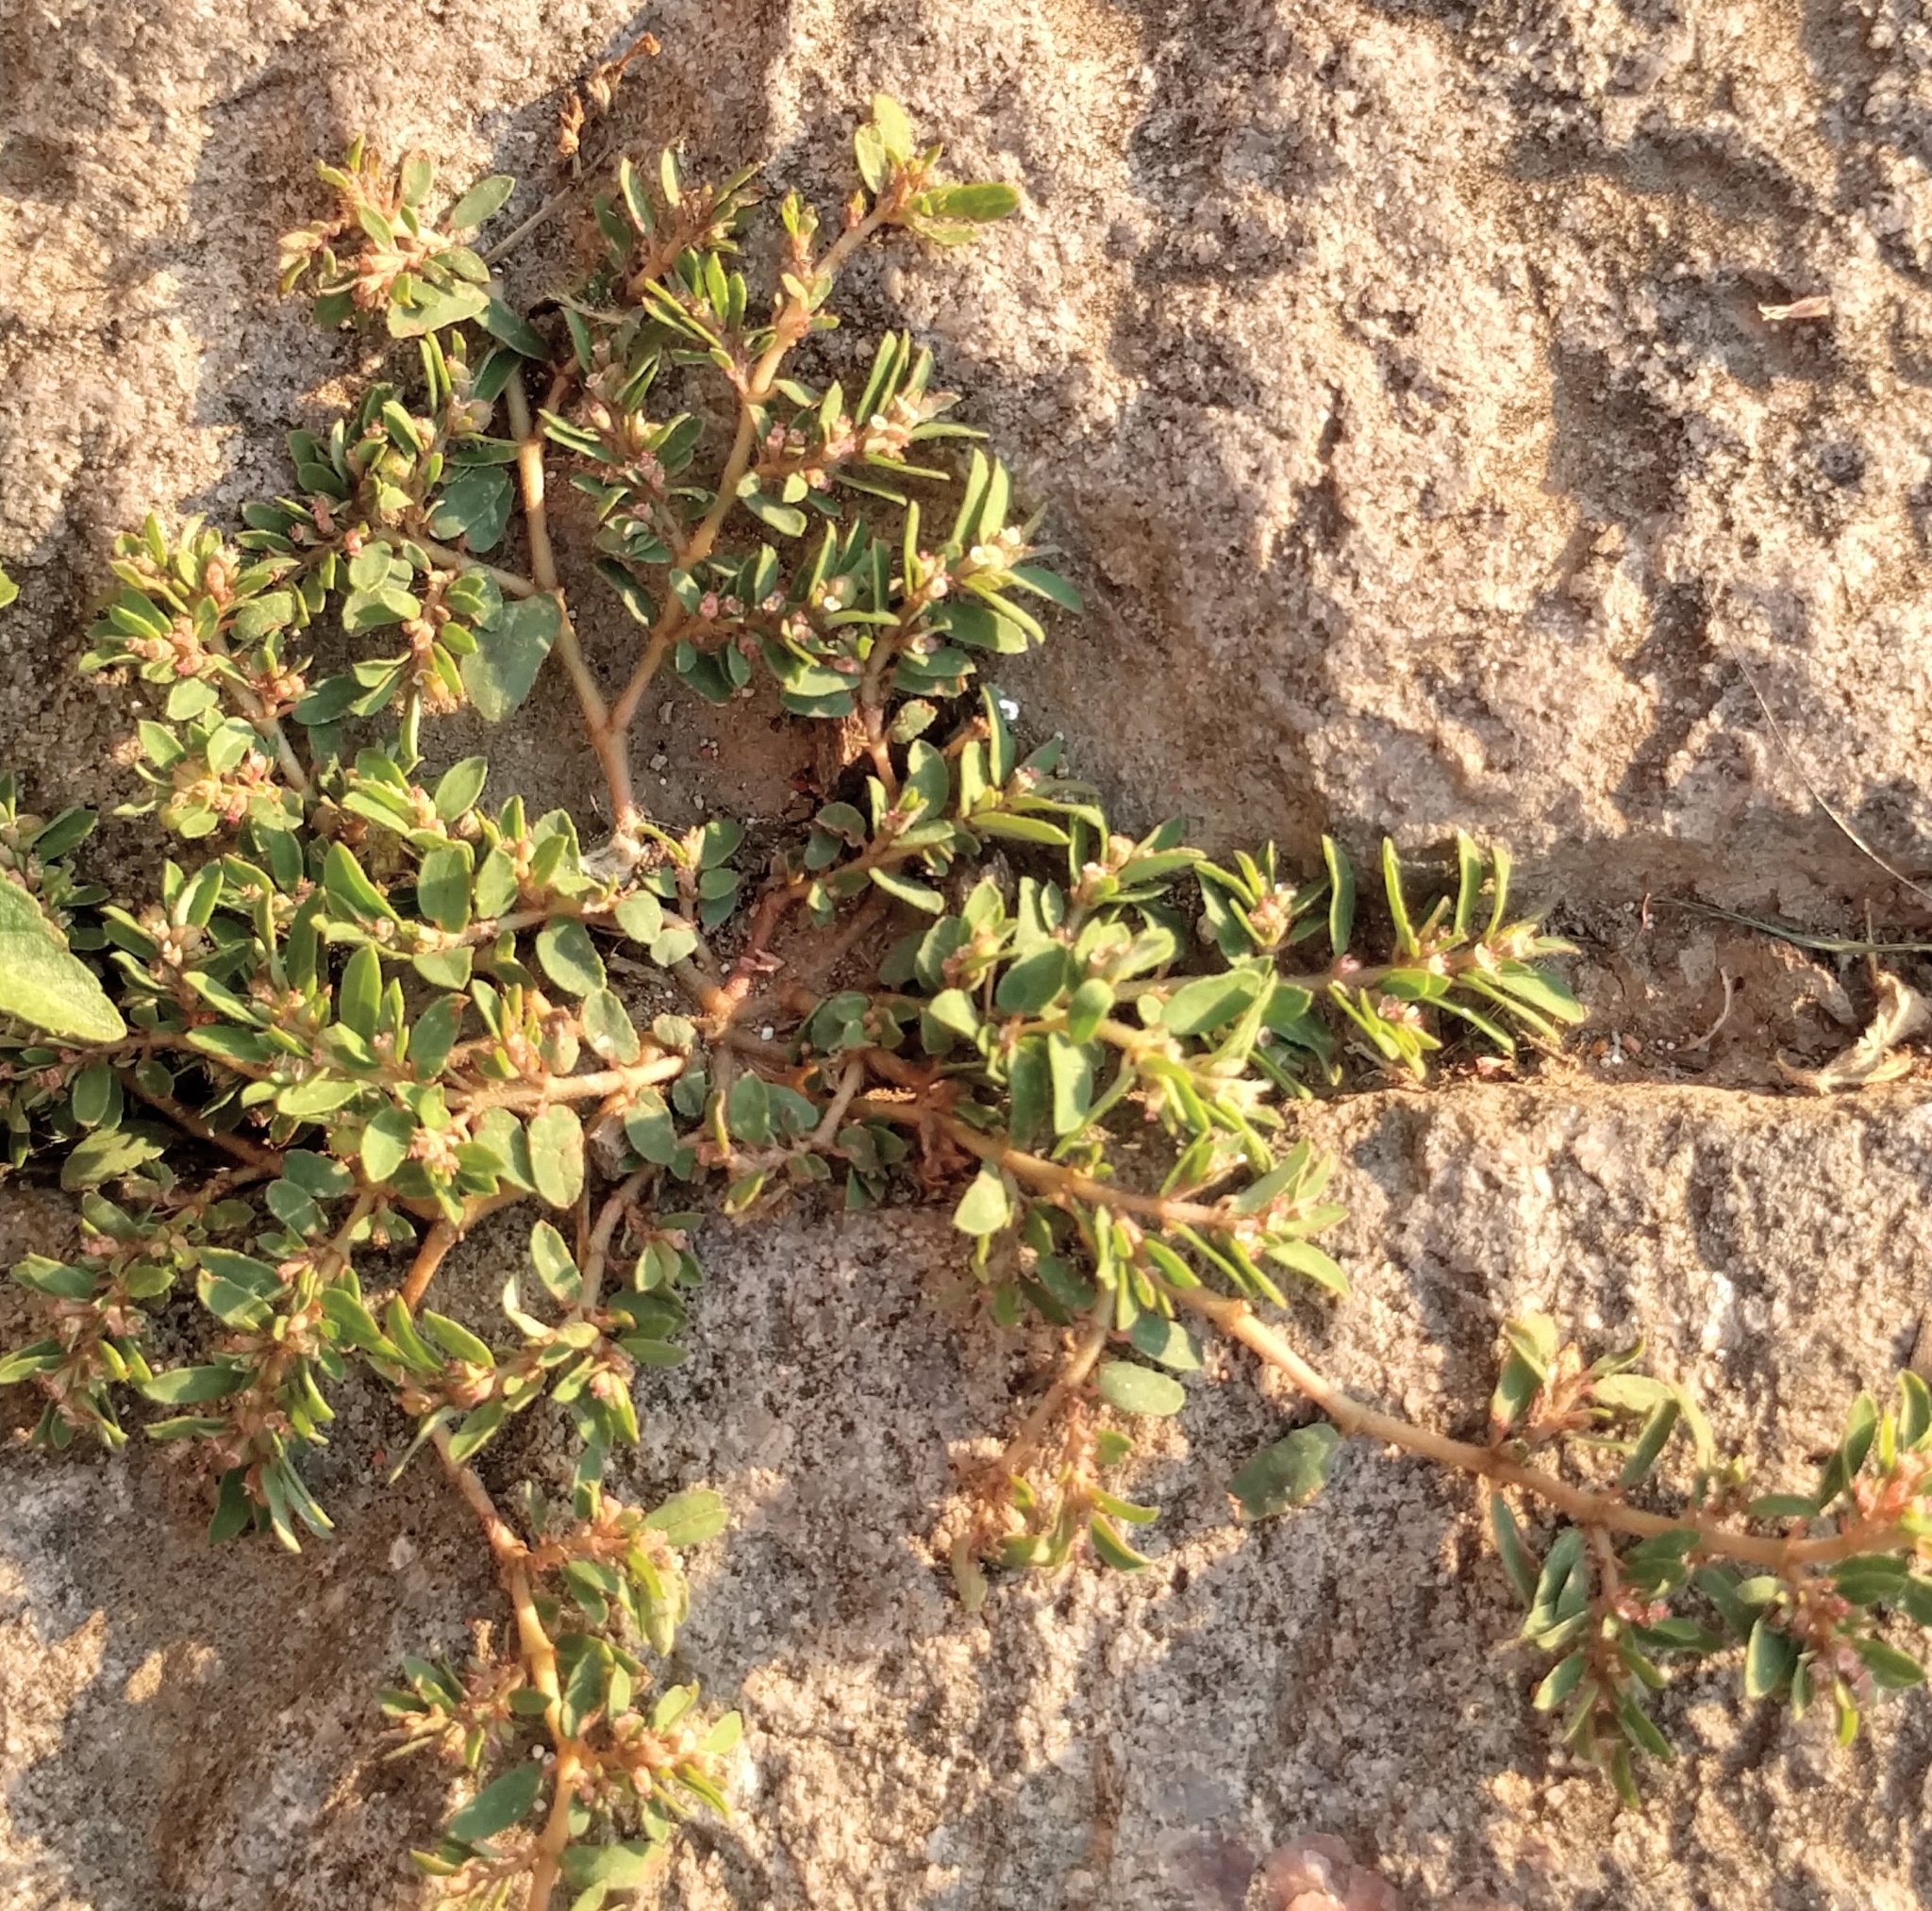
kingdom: Plantae
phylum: Tracheophyta
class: Magnoliopsida
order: Malpighiales
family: Euphorbiaceae
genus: Euphorbia
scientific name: Euphorbia maculata
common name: Spotted spurge
